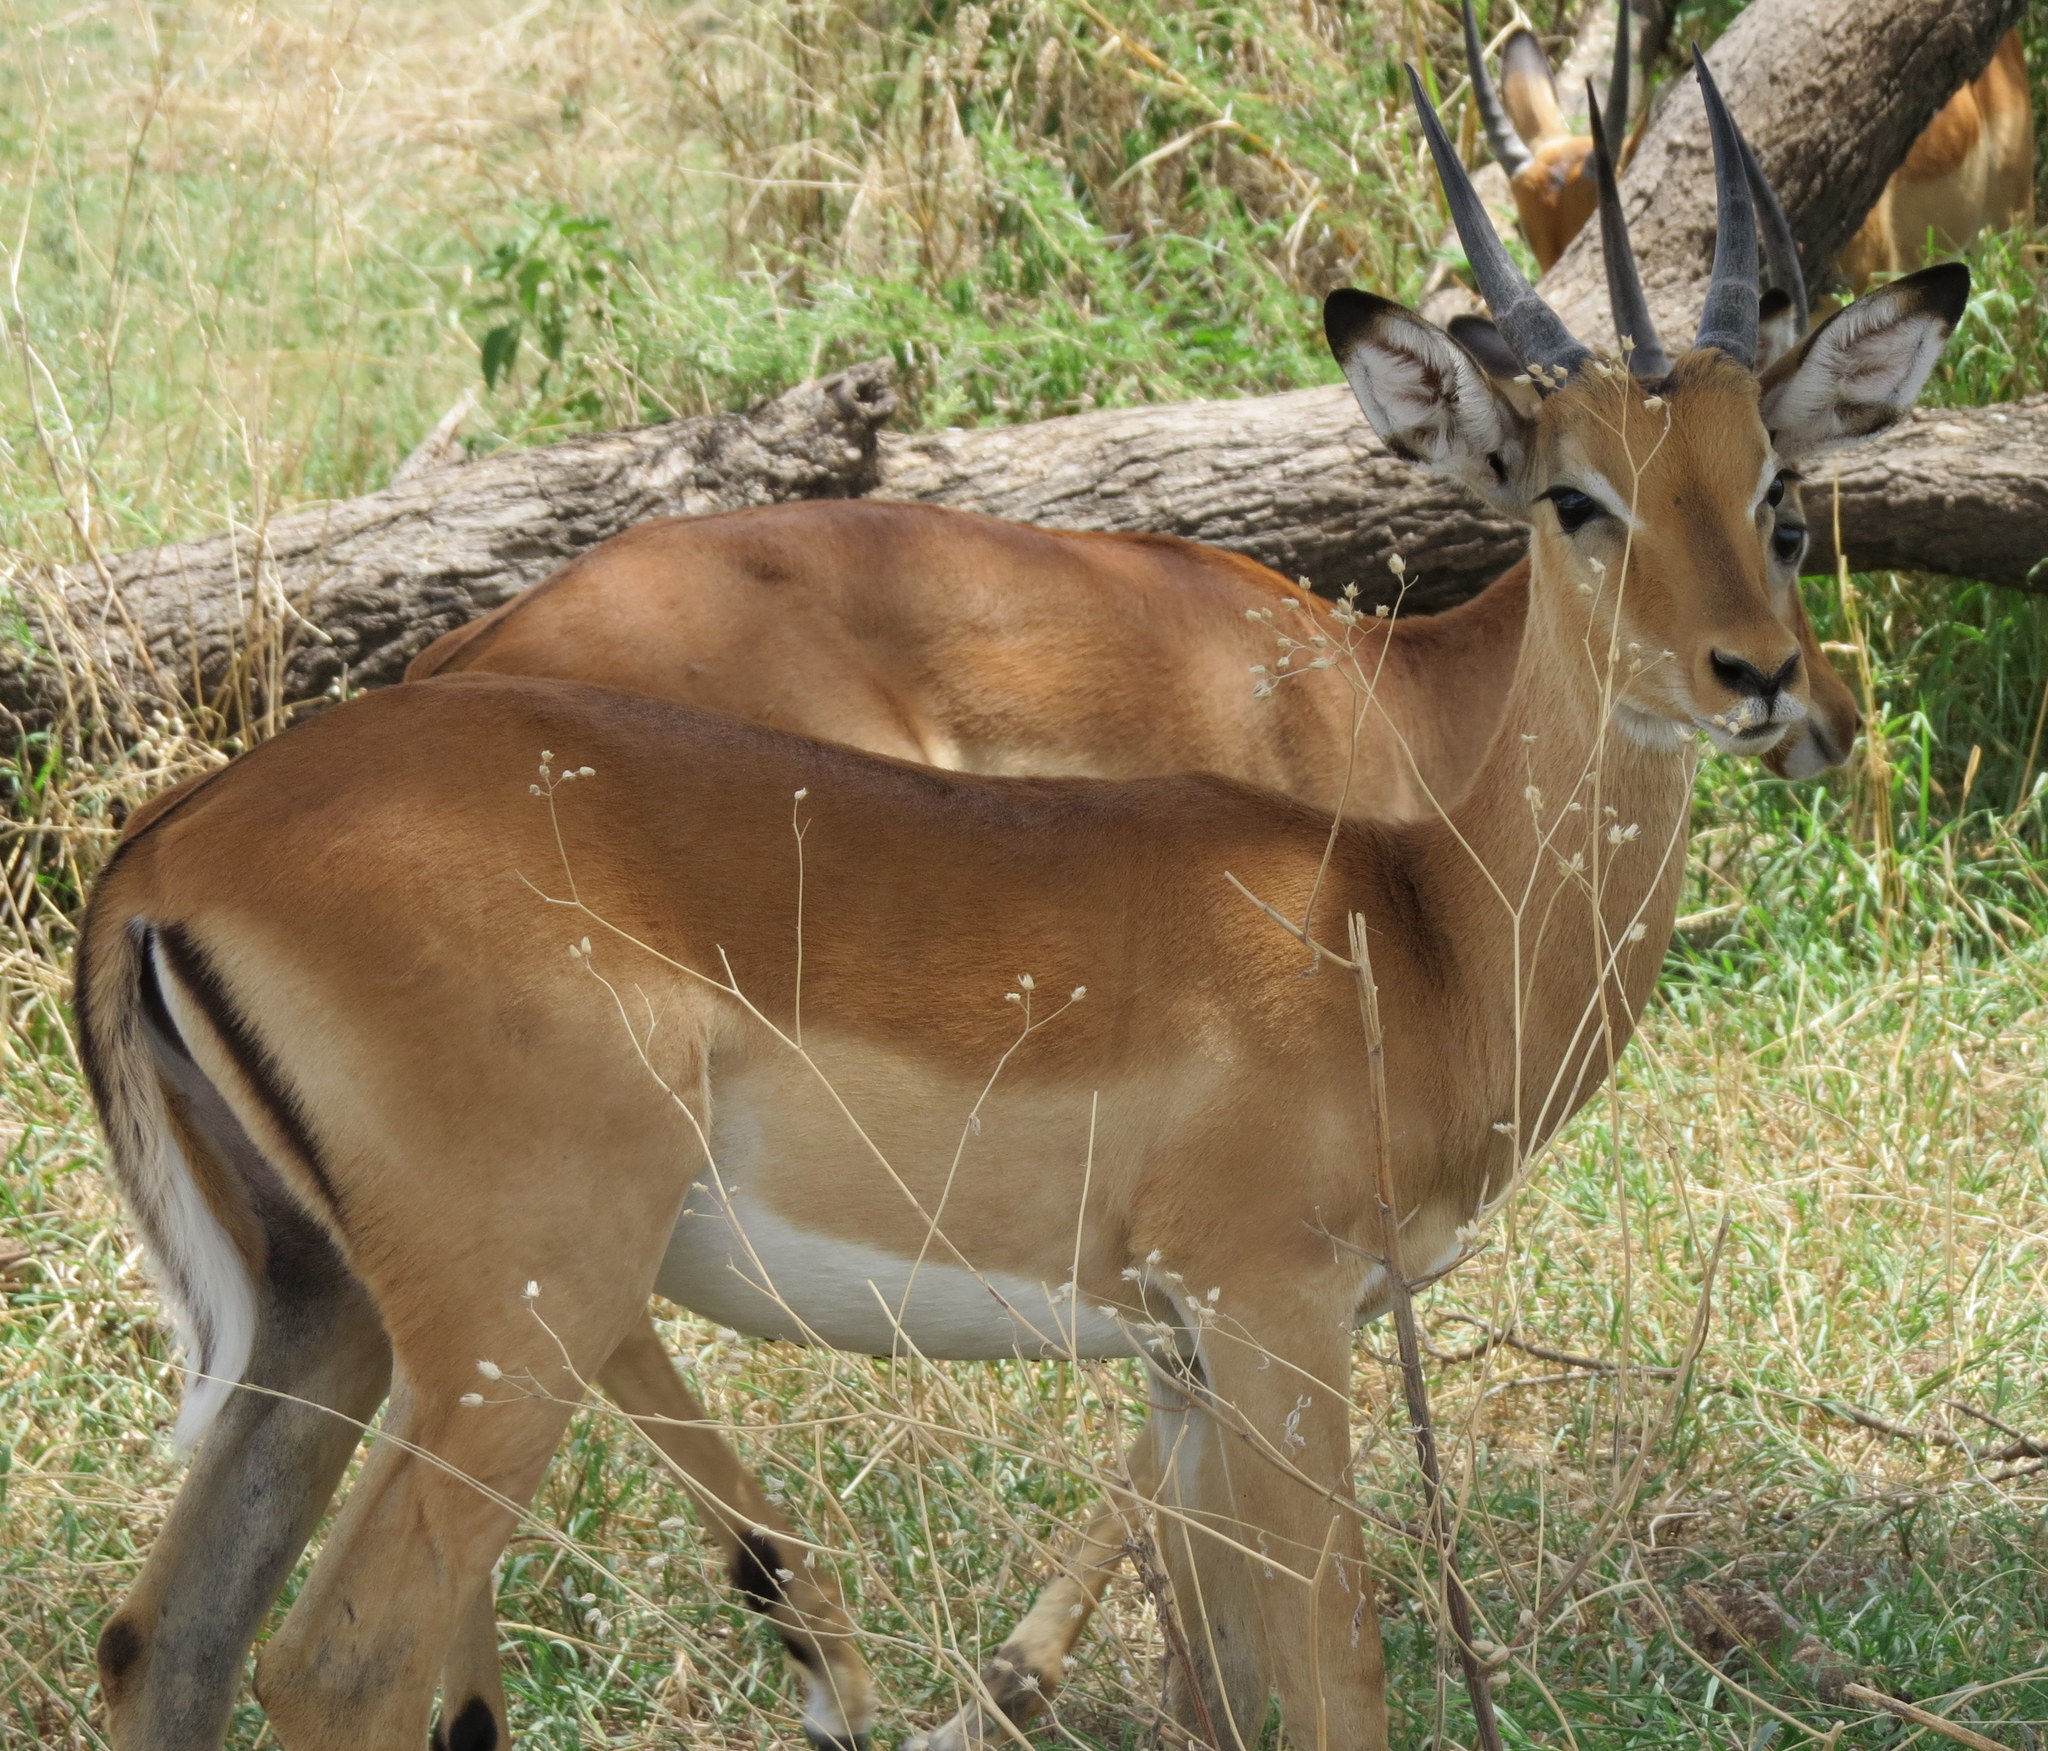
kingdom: Animalia
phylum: Chordata
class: Mammalia
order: Artiodactyla
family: Bovidae
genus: Aepyceros
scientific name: Aepyceros melampus
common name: Impala
